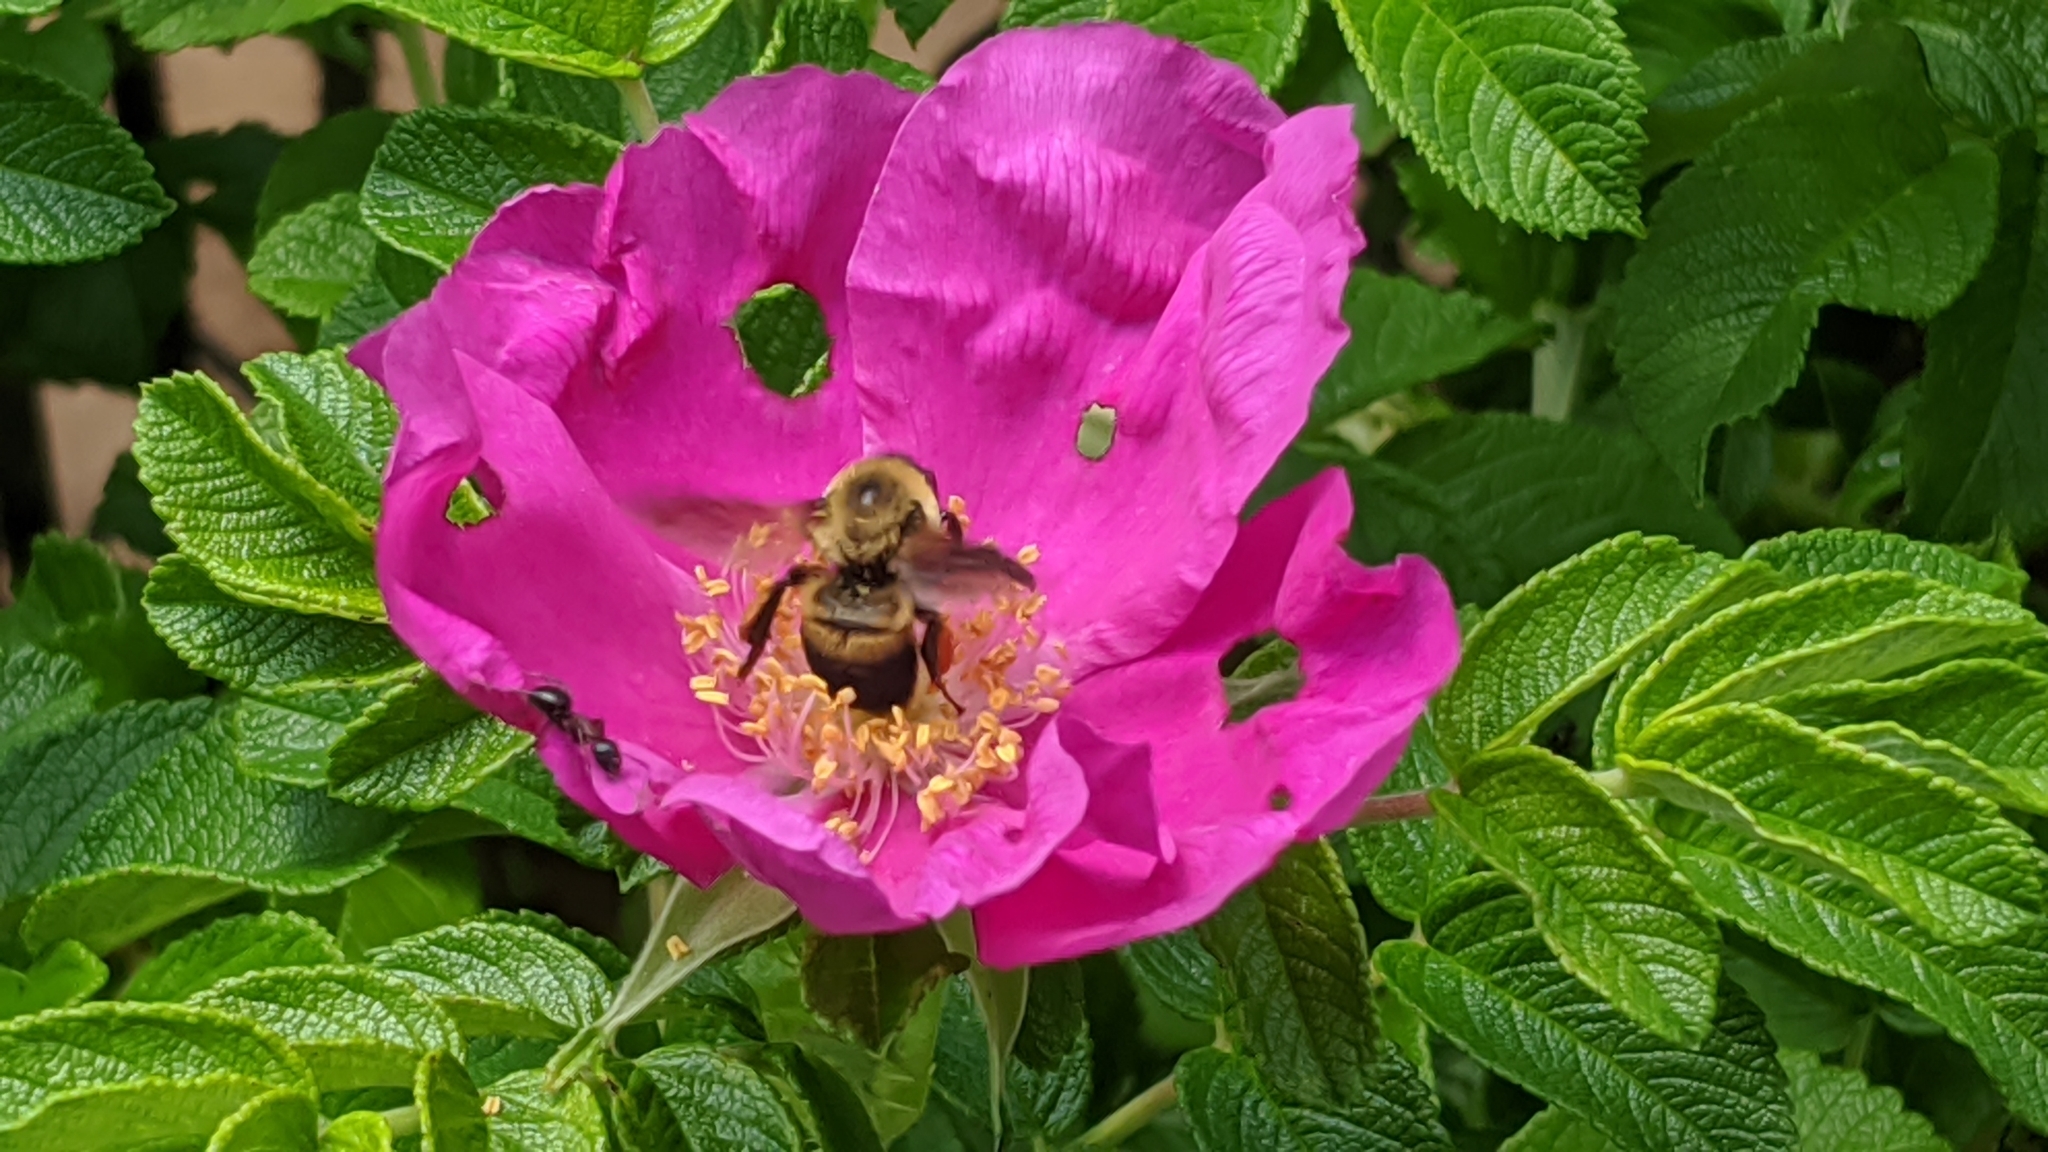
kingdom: Animalia
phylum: Arthropoda
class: Insecta
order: Hymenoptera
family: Apidae
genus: Bombus
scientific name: Bombus griseocollis
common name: Brown-belted bumble bee
